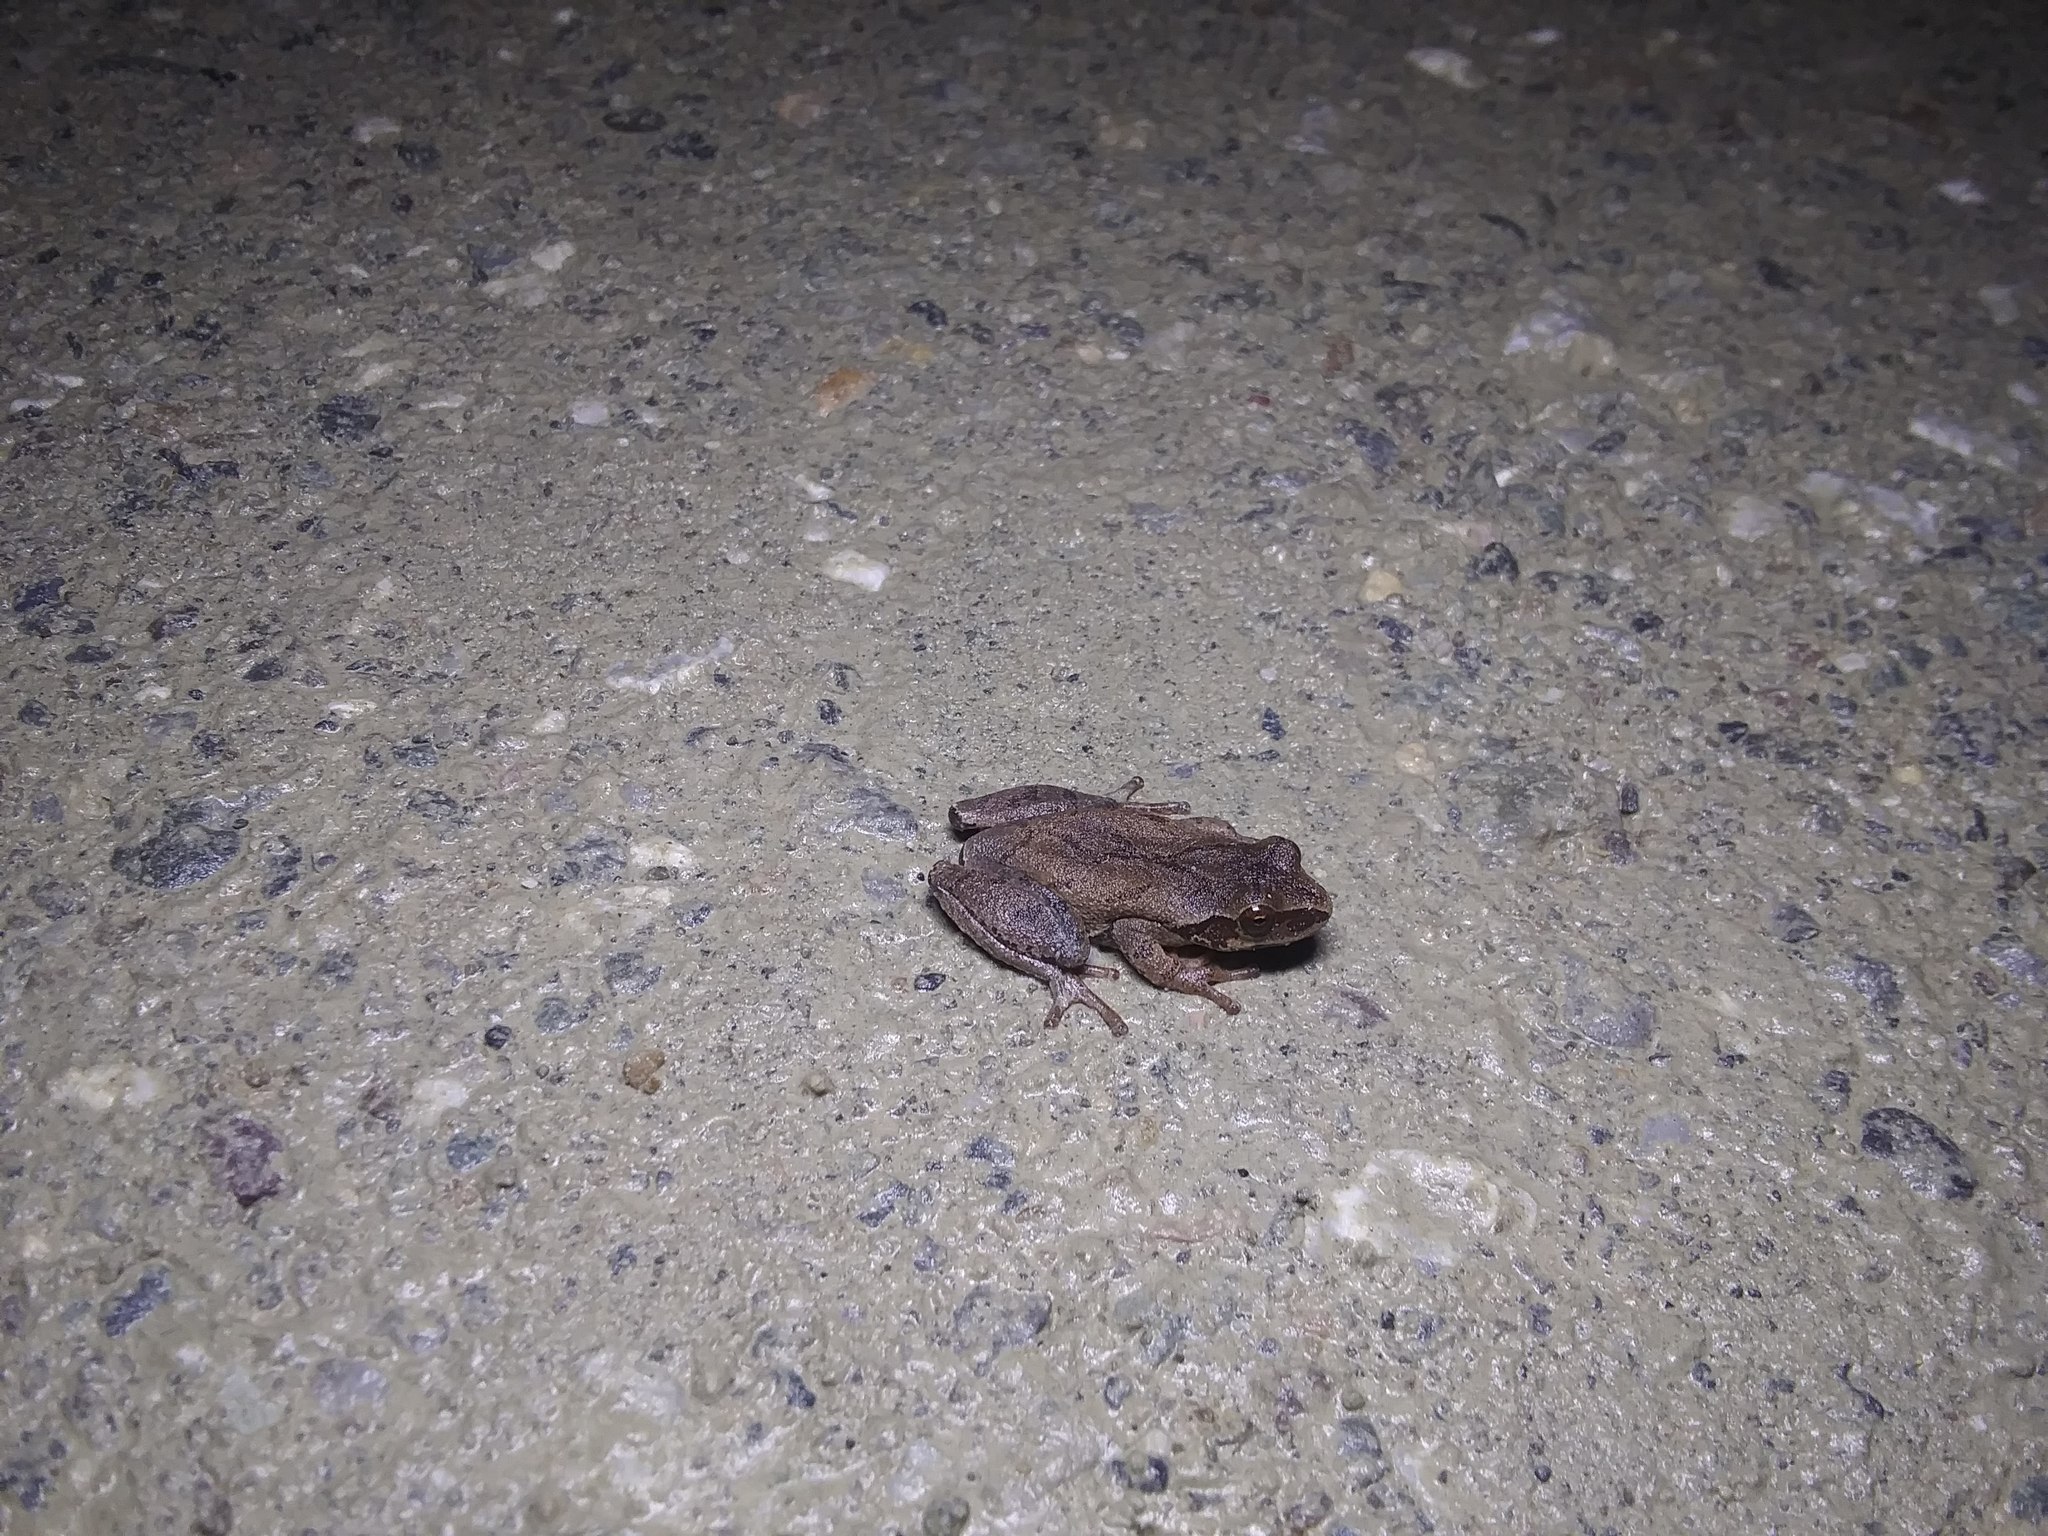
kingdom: Animalia
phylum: Chordata
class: Amphibia
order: Anura
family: Hylidae
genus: Pseudacris
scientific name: Pseudacris crucifer
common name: Spring peeper
